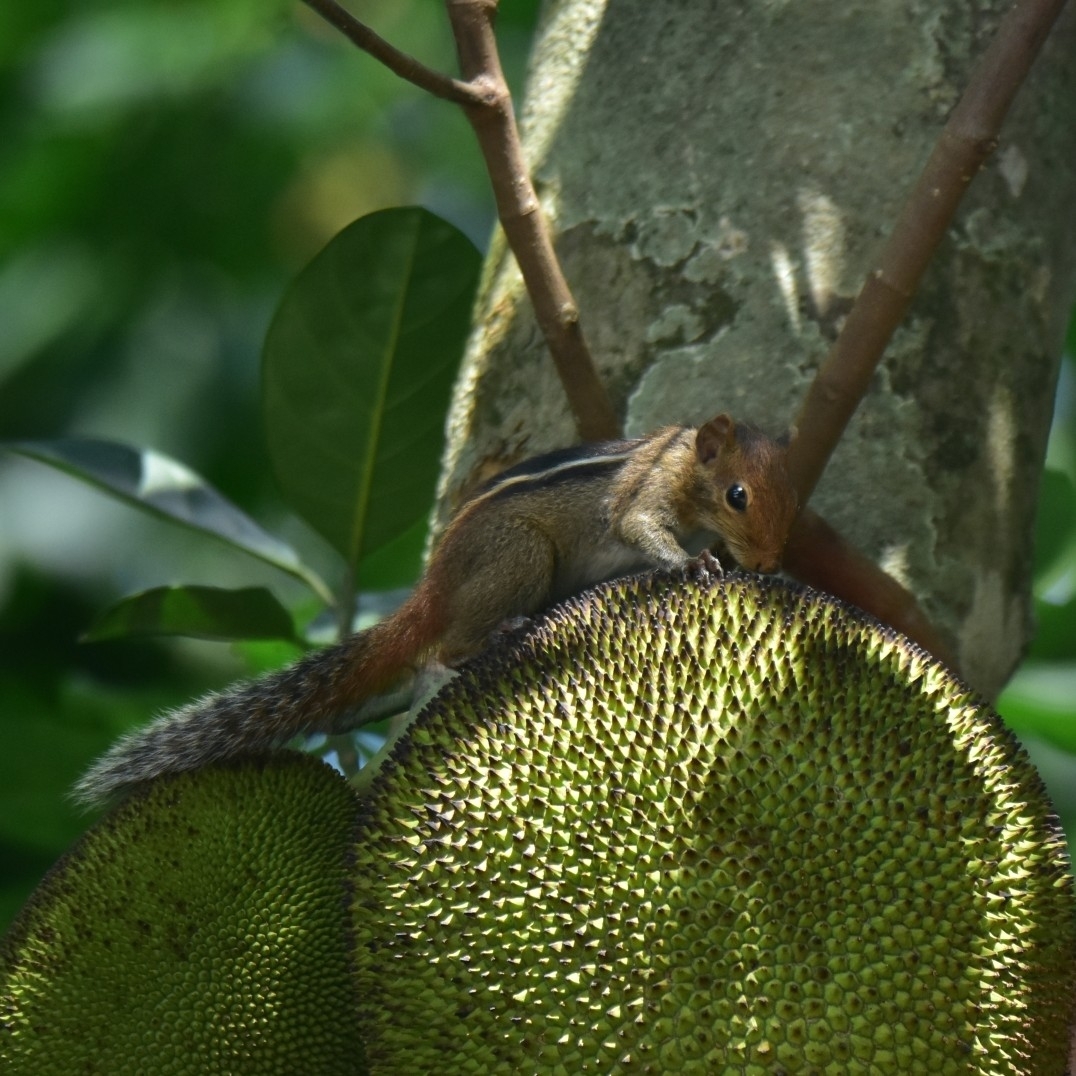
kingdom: Animalia
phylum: Chordata
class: Mammalia
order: Rodentia
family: Sciuridae
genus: Funambulus
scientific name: Funambulus tristriatus
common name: Jungle palm squirrel
